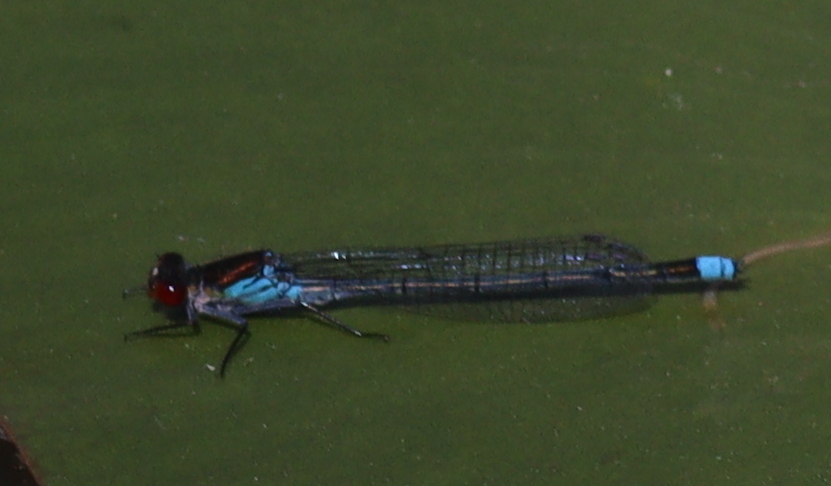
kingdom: Animalia
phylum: Arthropoda
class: Insecta
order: Odonata
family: Coenagrionidae
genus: Erythromma
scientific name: Erythromma najas
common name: Red-eyed damselfly
